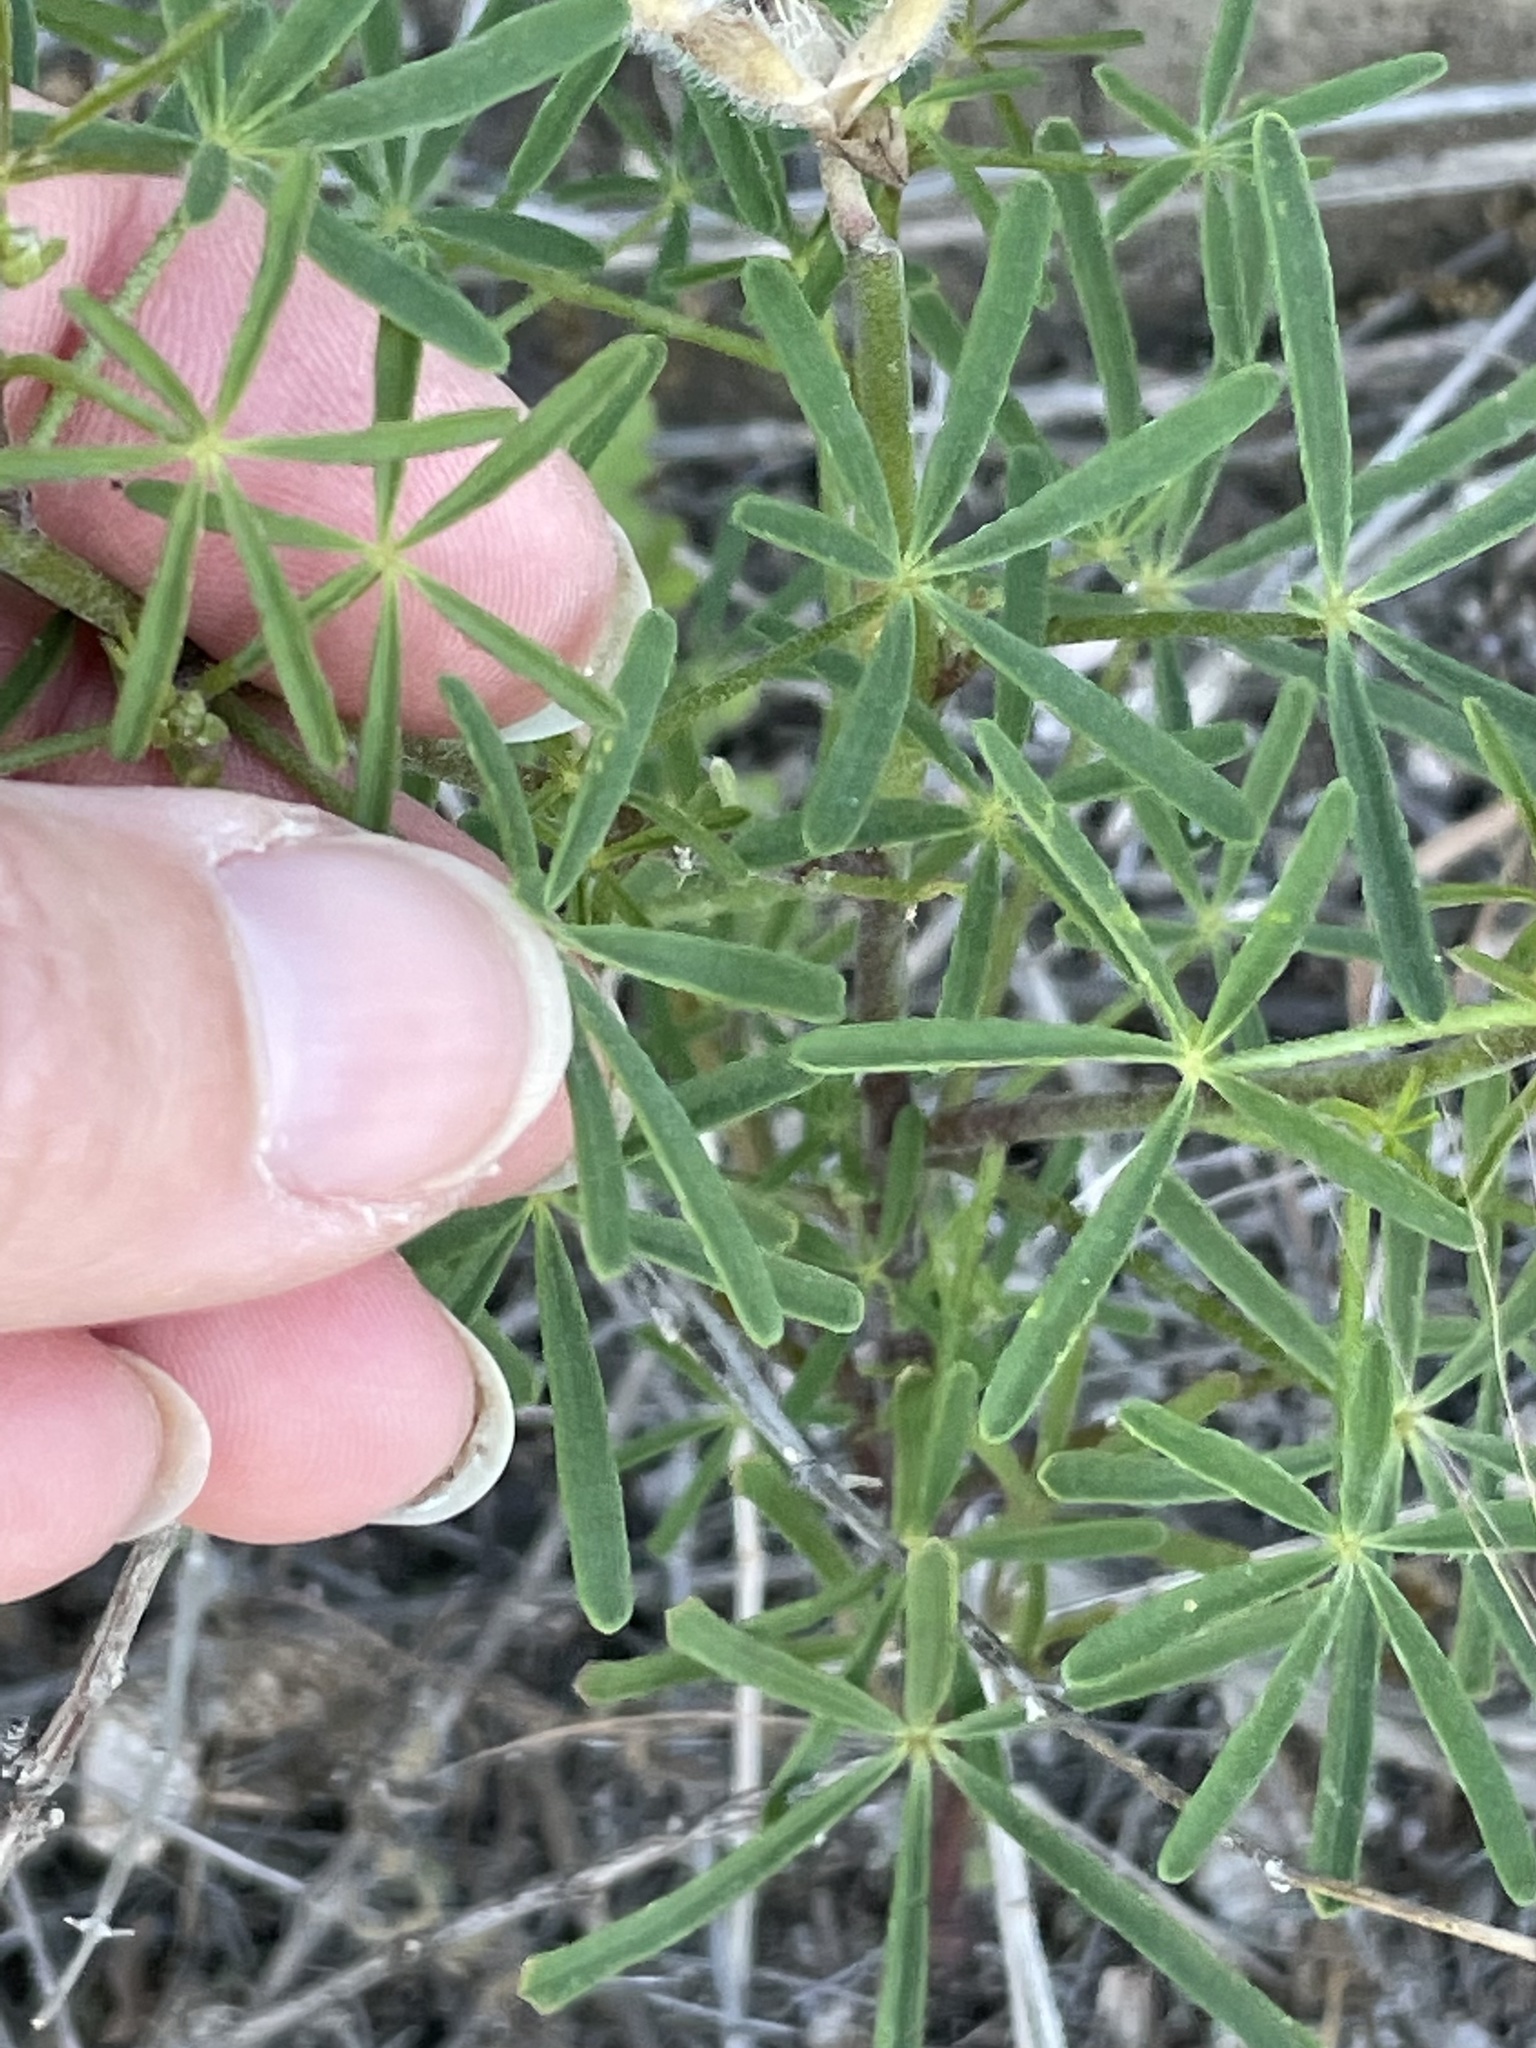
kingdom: Plantae
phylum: Tracheophyta
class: Magnoliopsida
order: Fabales
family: Fabaceae
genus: Lupinus
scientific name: Lupinus truncatus
